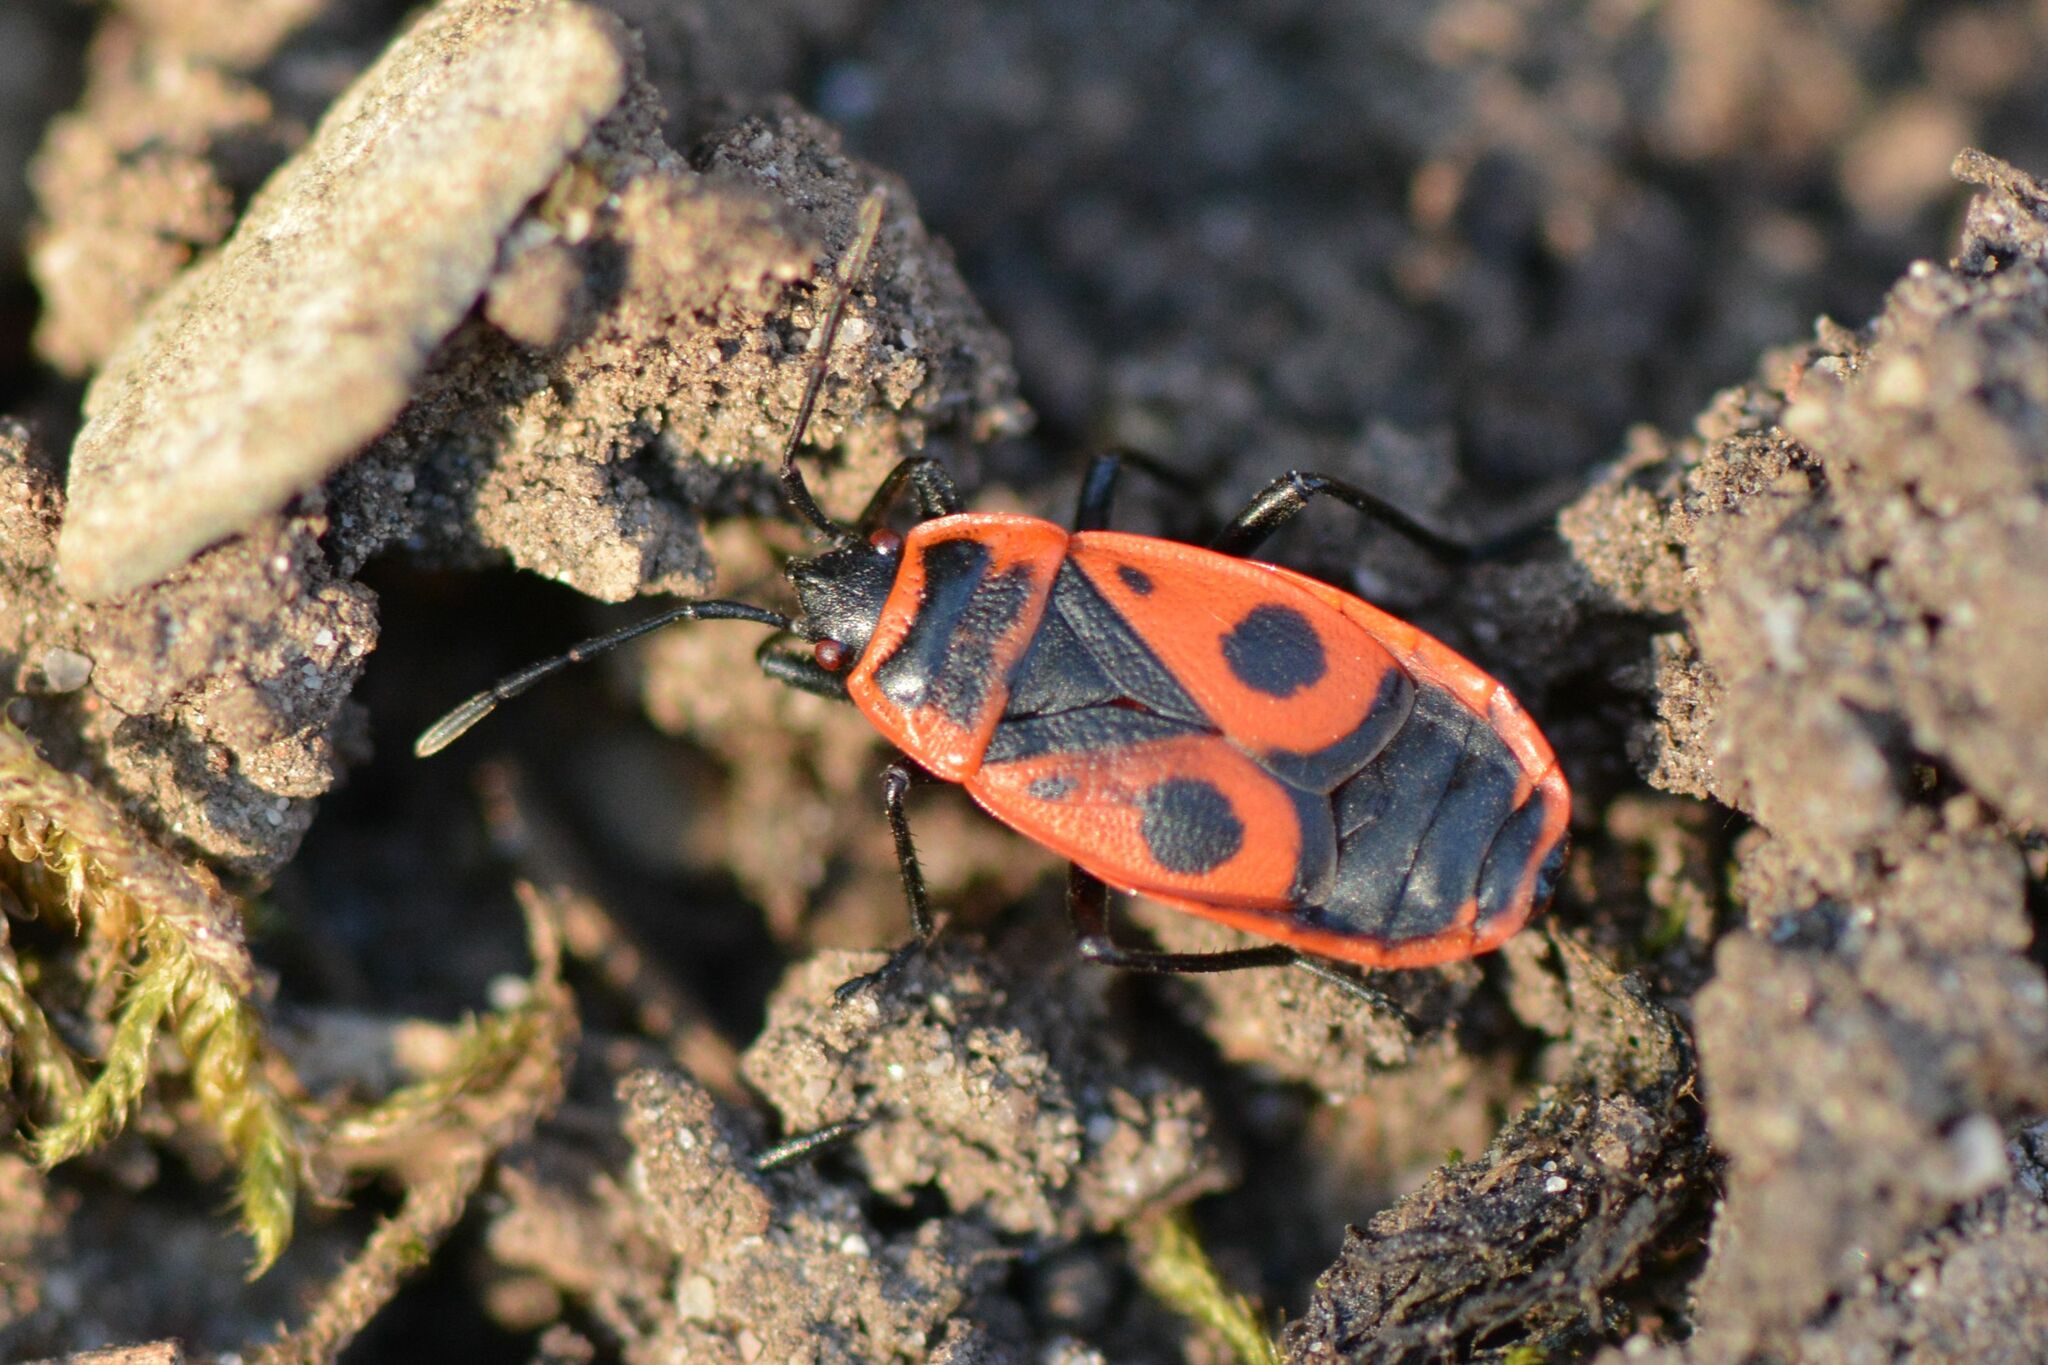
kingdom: Animalia
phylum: Arthropoda
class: Insecta
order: Hemiptera
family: Pyrrhocoridae
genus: Pyrrhocoris
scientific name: Pyrrhocoris apterus
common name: Firebug
